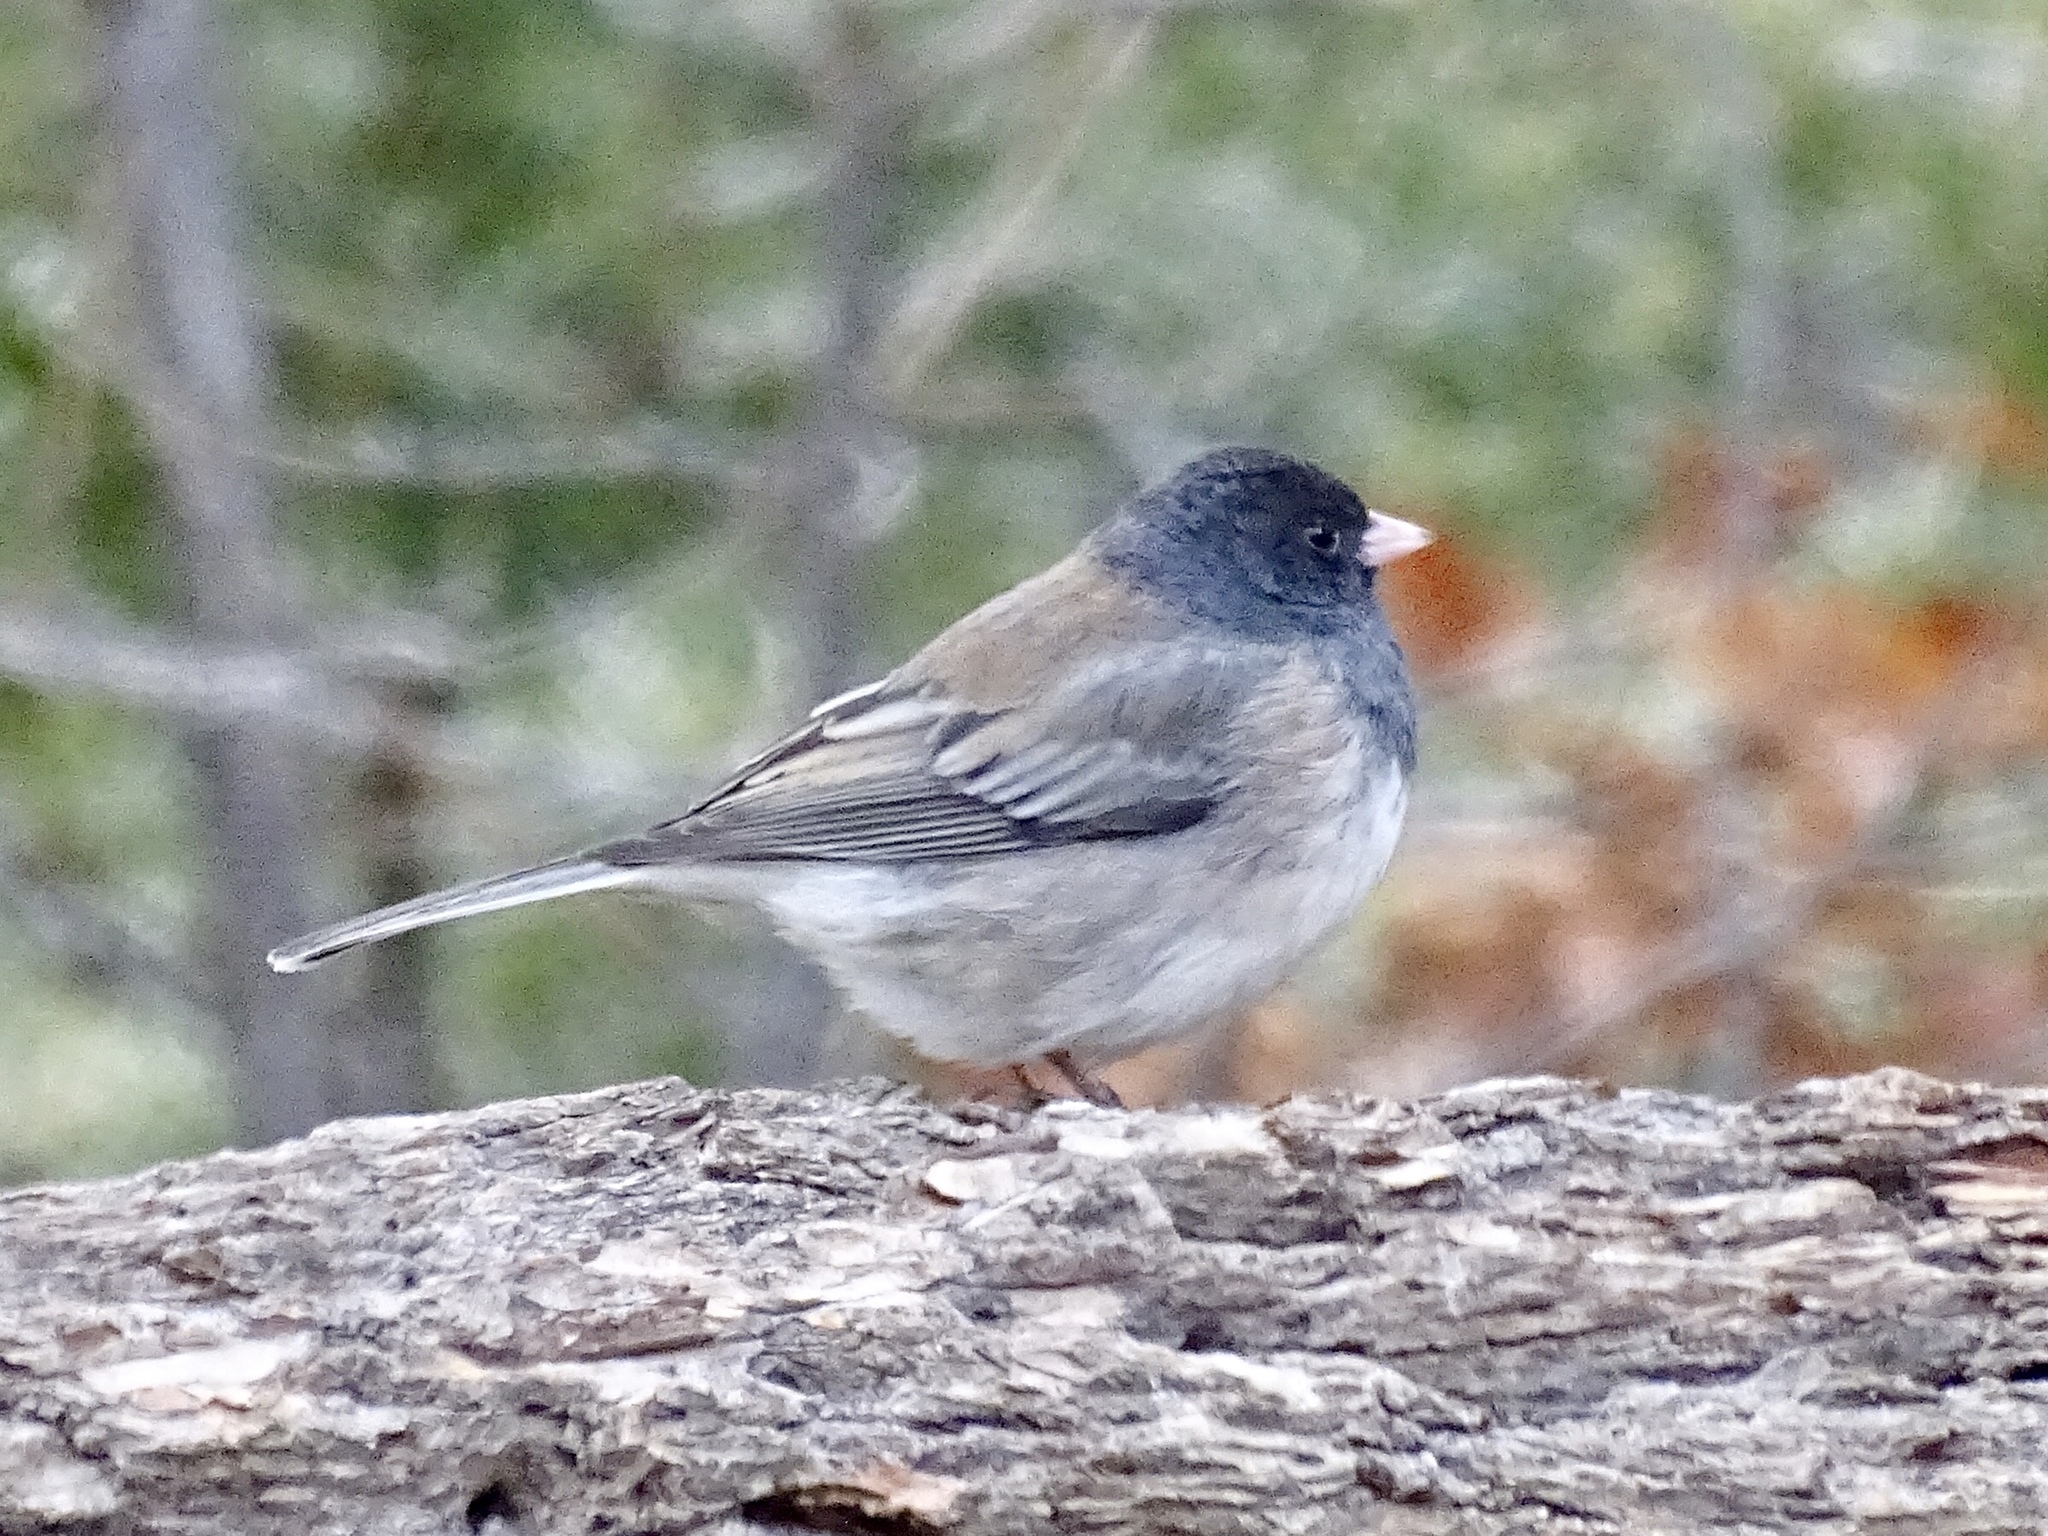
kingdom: Animalia
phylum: Chordata
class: Aves
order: Passeriformes
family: Passerellidae
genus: Junco
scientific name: Junco hyemalis
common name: Dark-eyed junco
